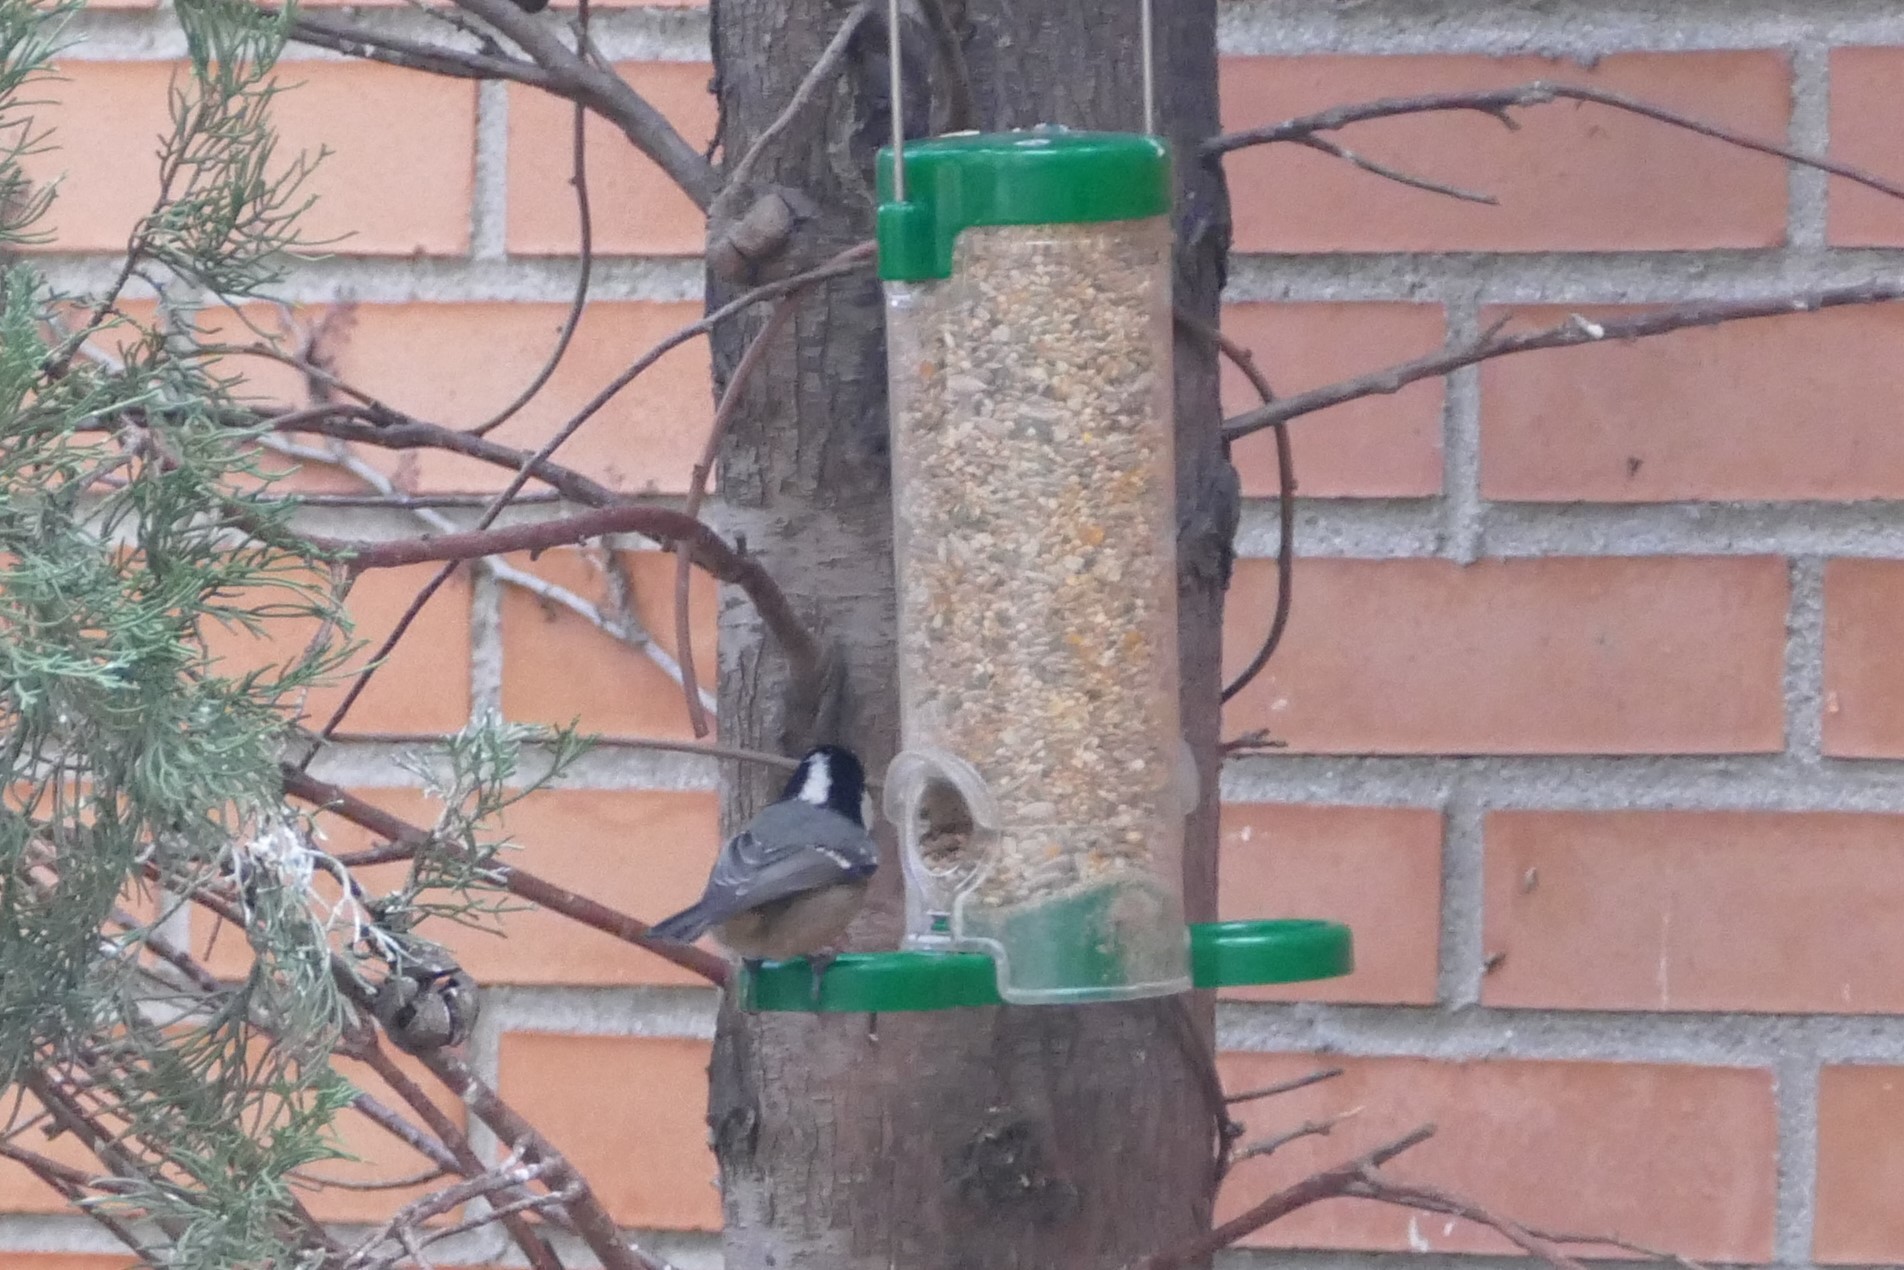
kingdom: Animalia
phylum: Chordata
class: Aves
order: Passeriformes
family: Paridae
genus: Periparus
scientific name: Periparus ater
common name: Coal tit
